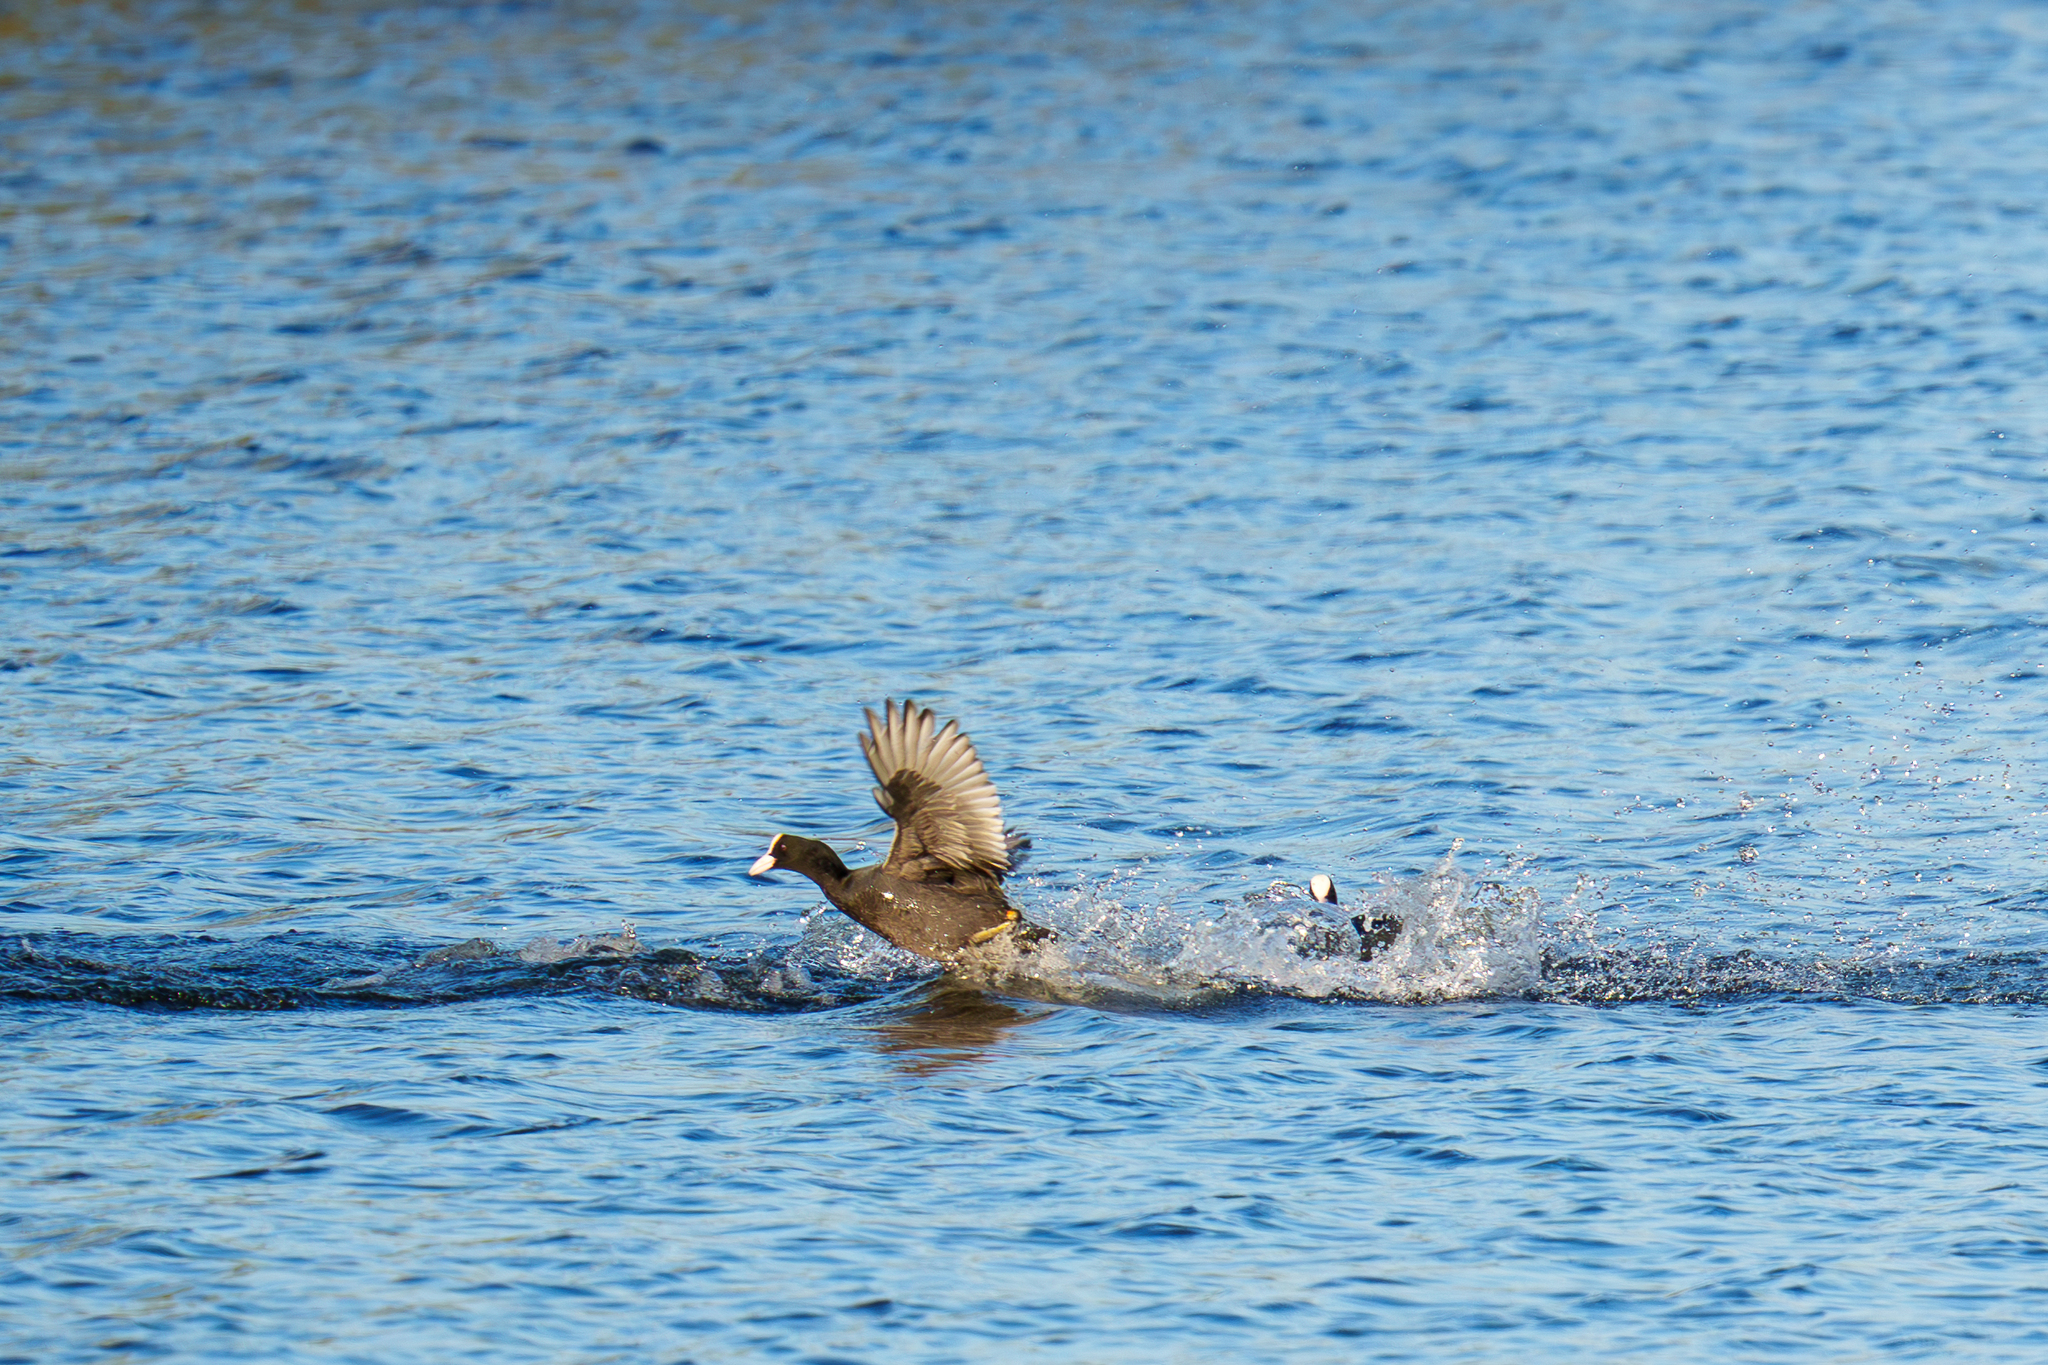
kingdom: Animalia
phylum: Chordata
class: Aves
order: Gruiformes
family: Rallidae
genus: Fulica
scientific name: Fulica atra
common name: Eurasian coot
